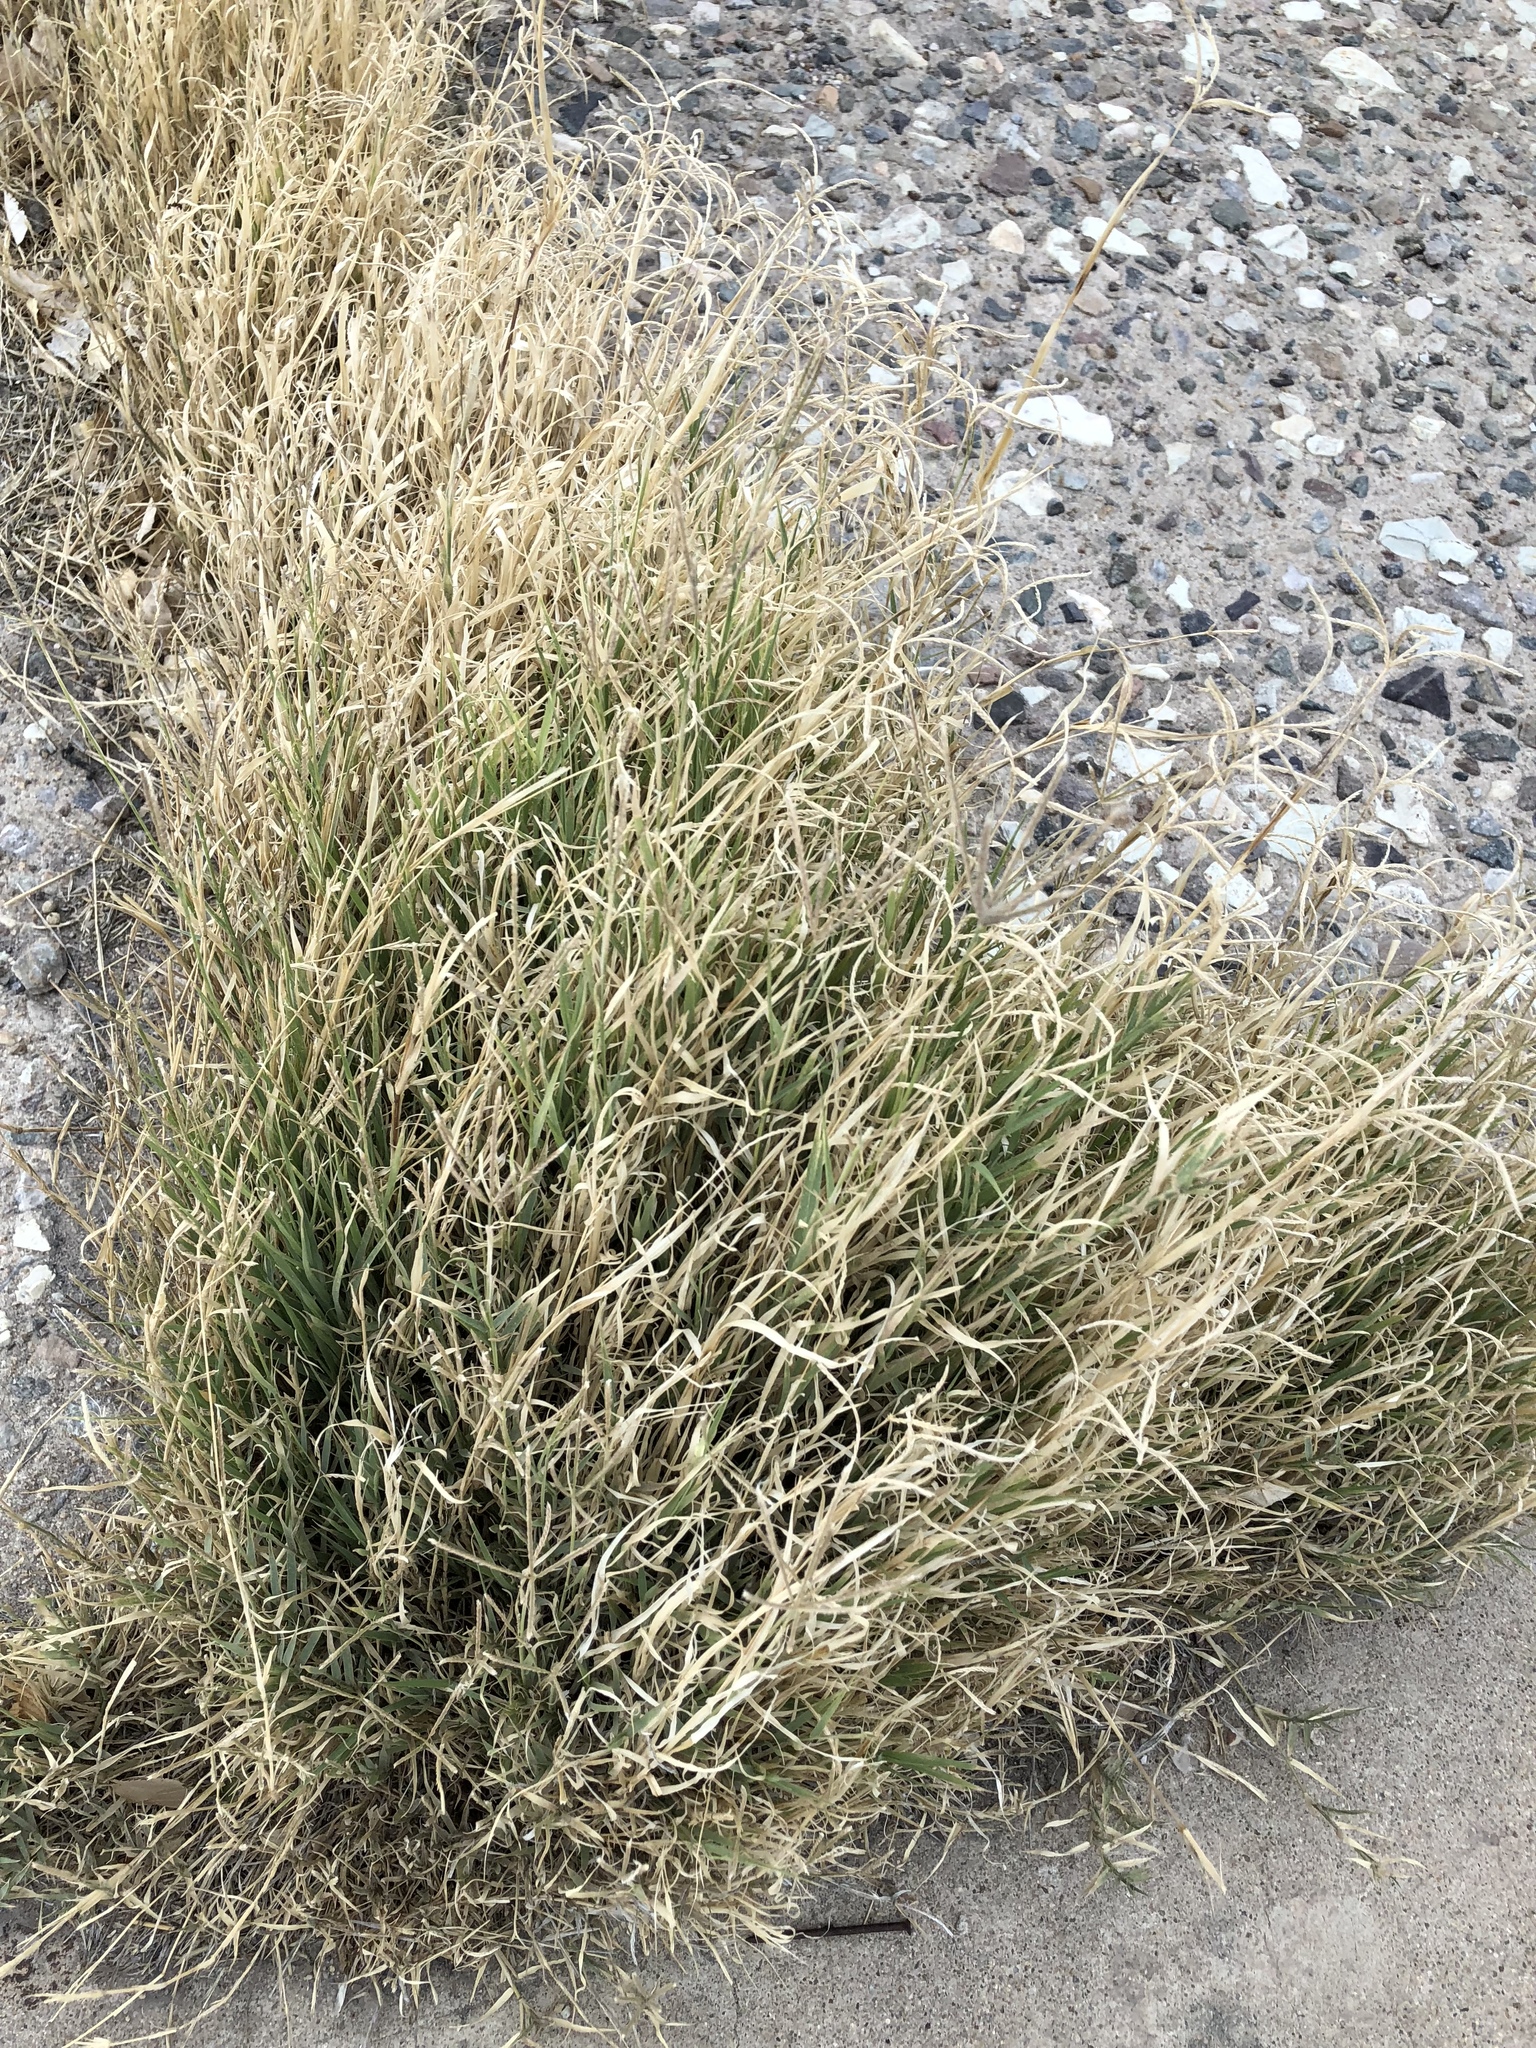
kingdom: Plantae
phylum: Tracheophyta
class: Liliopsida
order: Poales
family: Poaceae
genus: Cynodon
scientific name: Cynodon dactylon
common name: Bermuda grass
